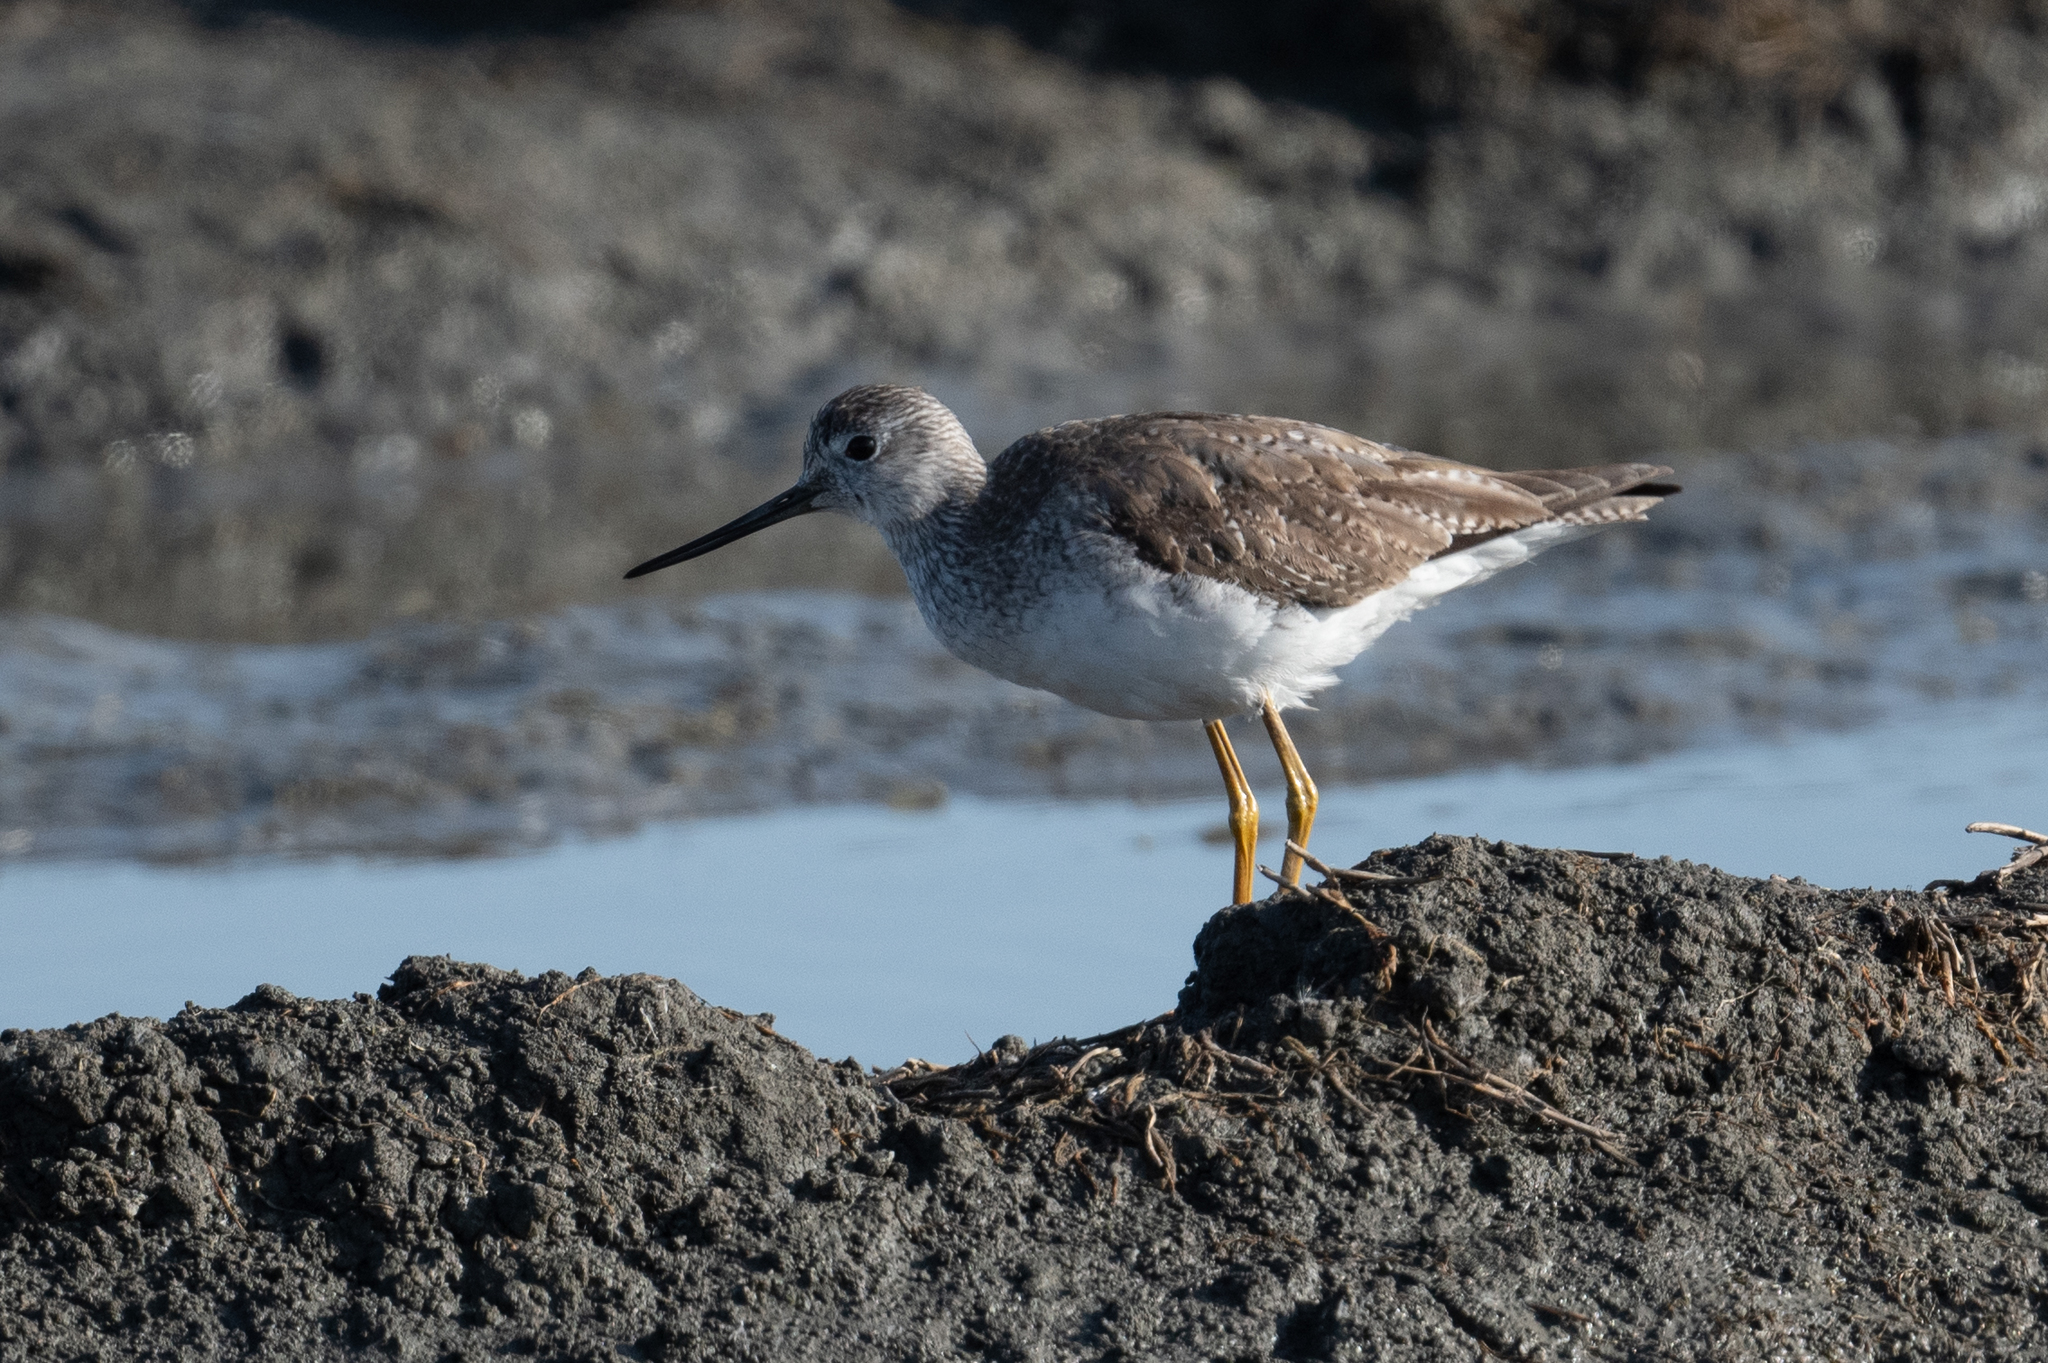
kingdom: Animalia
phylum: Chordata
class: Aves
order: Charadriiformes
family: Scolopacidae
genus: Tringa
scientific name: Tringa melanoleuca
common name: Greater yellowlegs
